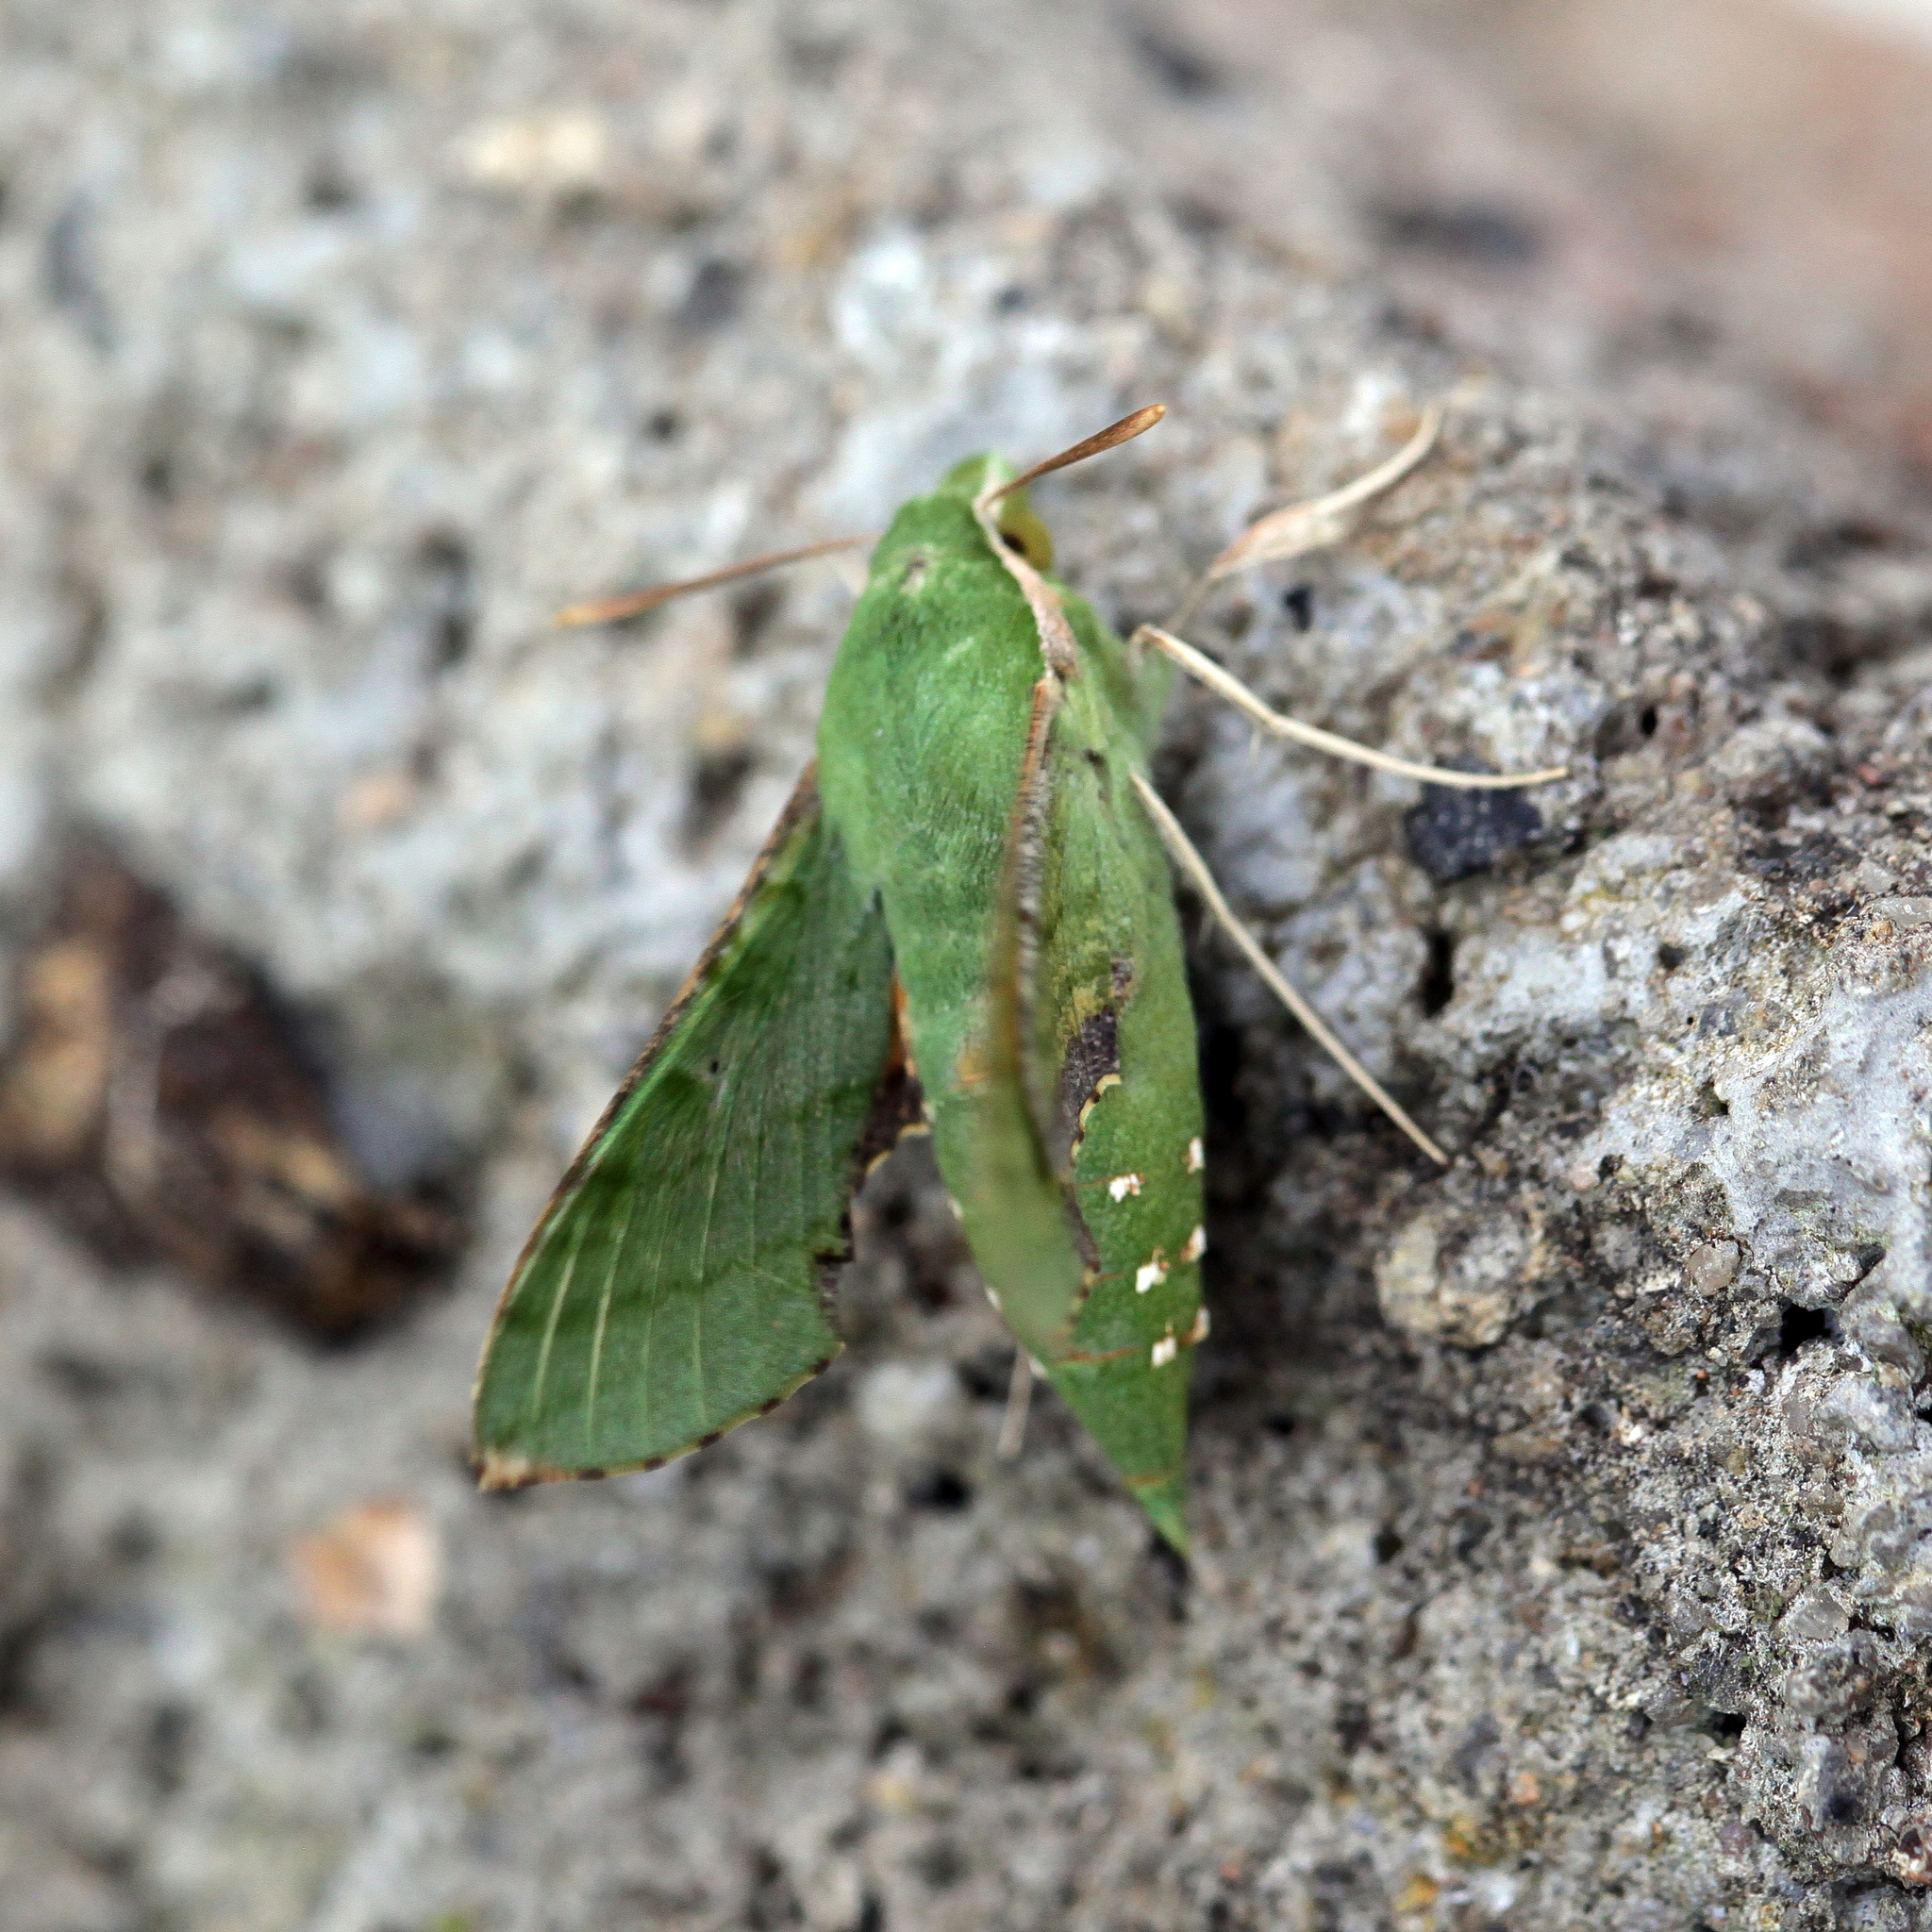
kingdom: Animalia
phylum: Arthropoda
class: Insecta
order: Lepidoptera
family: Sphingidae
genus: Basiothia
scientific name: Basiothia medea
